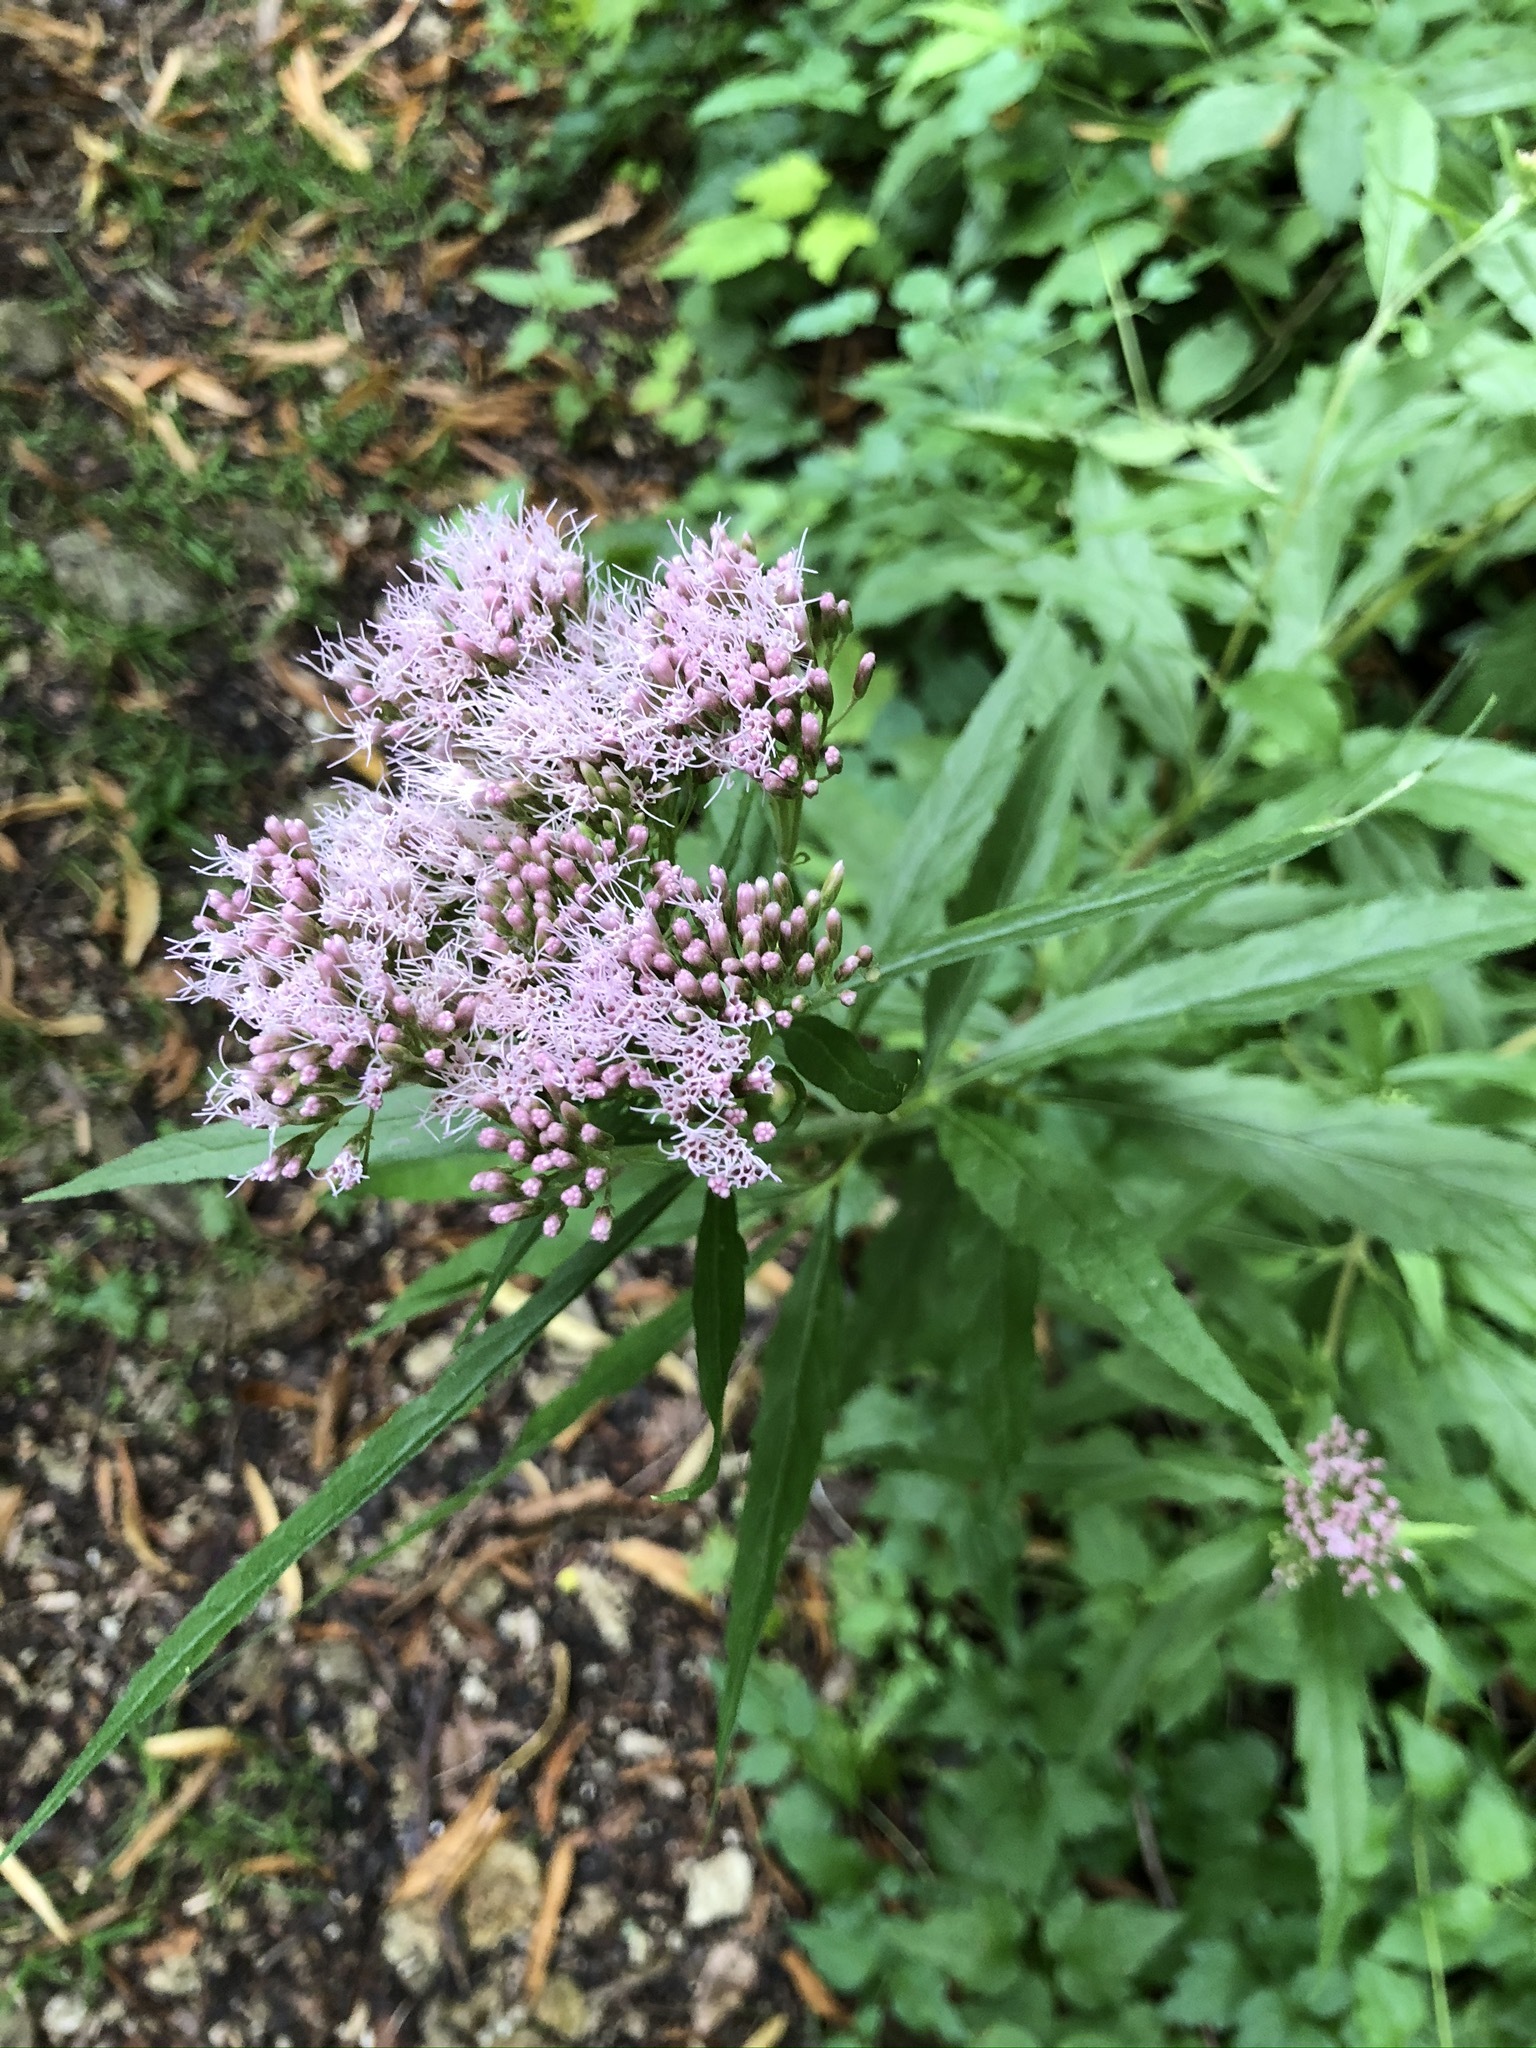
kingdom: Plantae
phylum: Tracheophyta
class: Magnoliopsida
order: Asterales
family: Asteraceae
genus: Eupatorium
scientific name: Eupatorium cannabinum
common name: Hemp-agrimony
